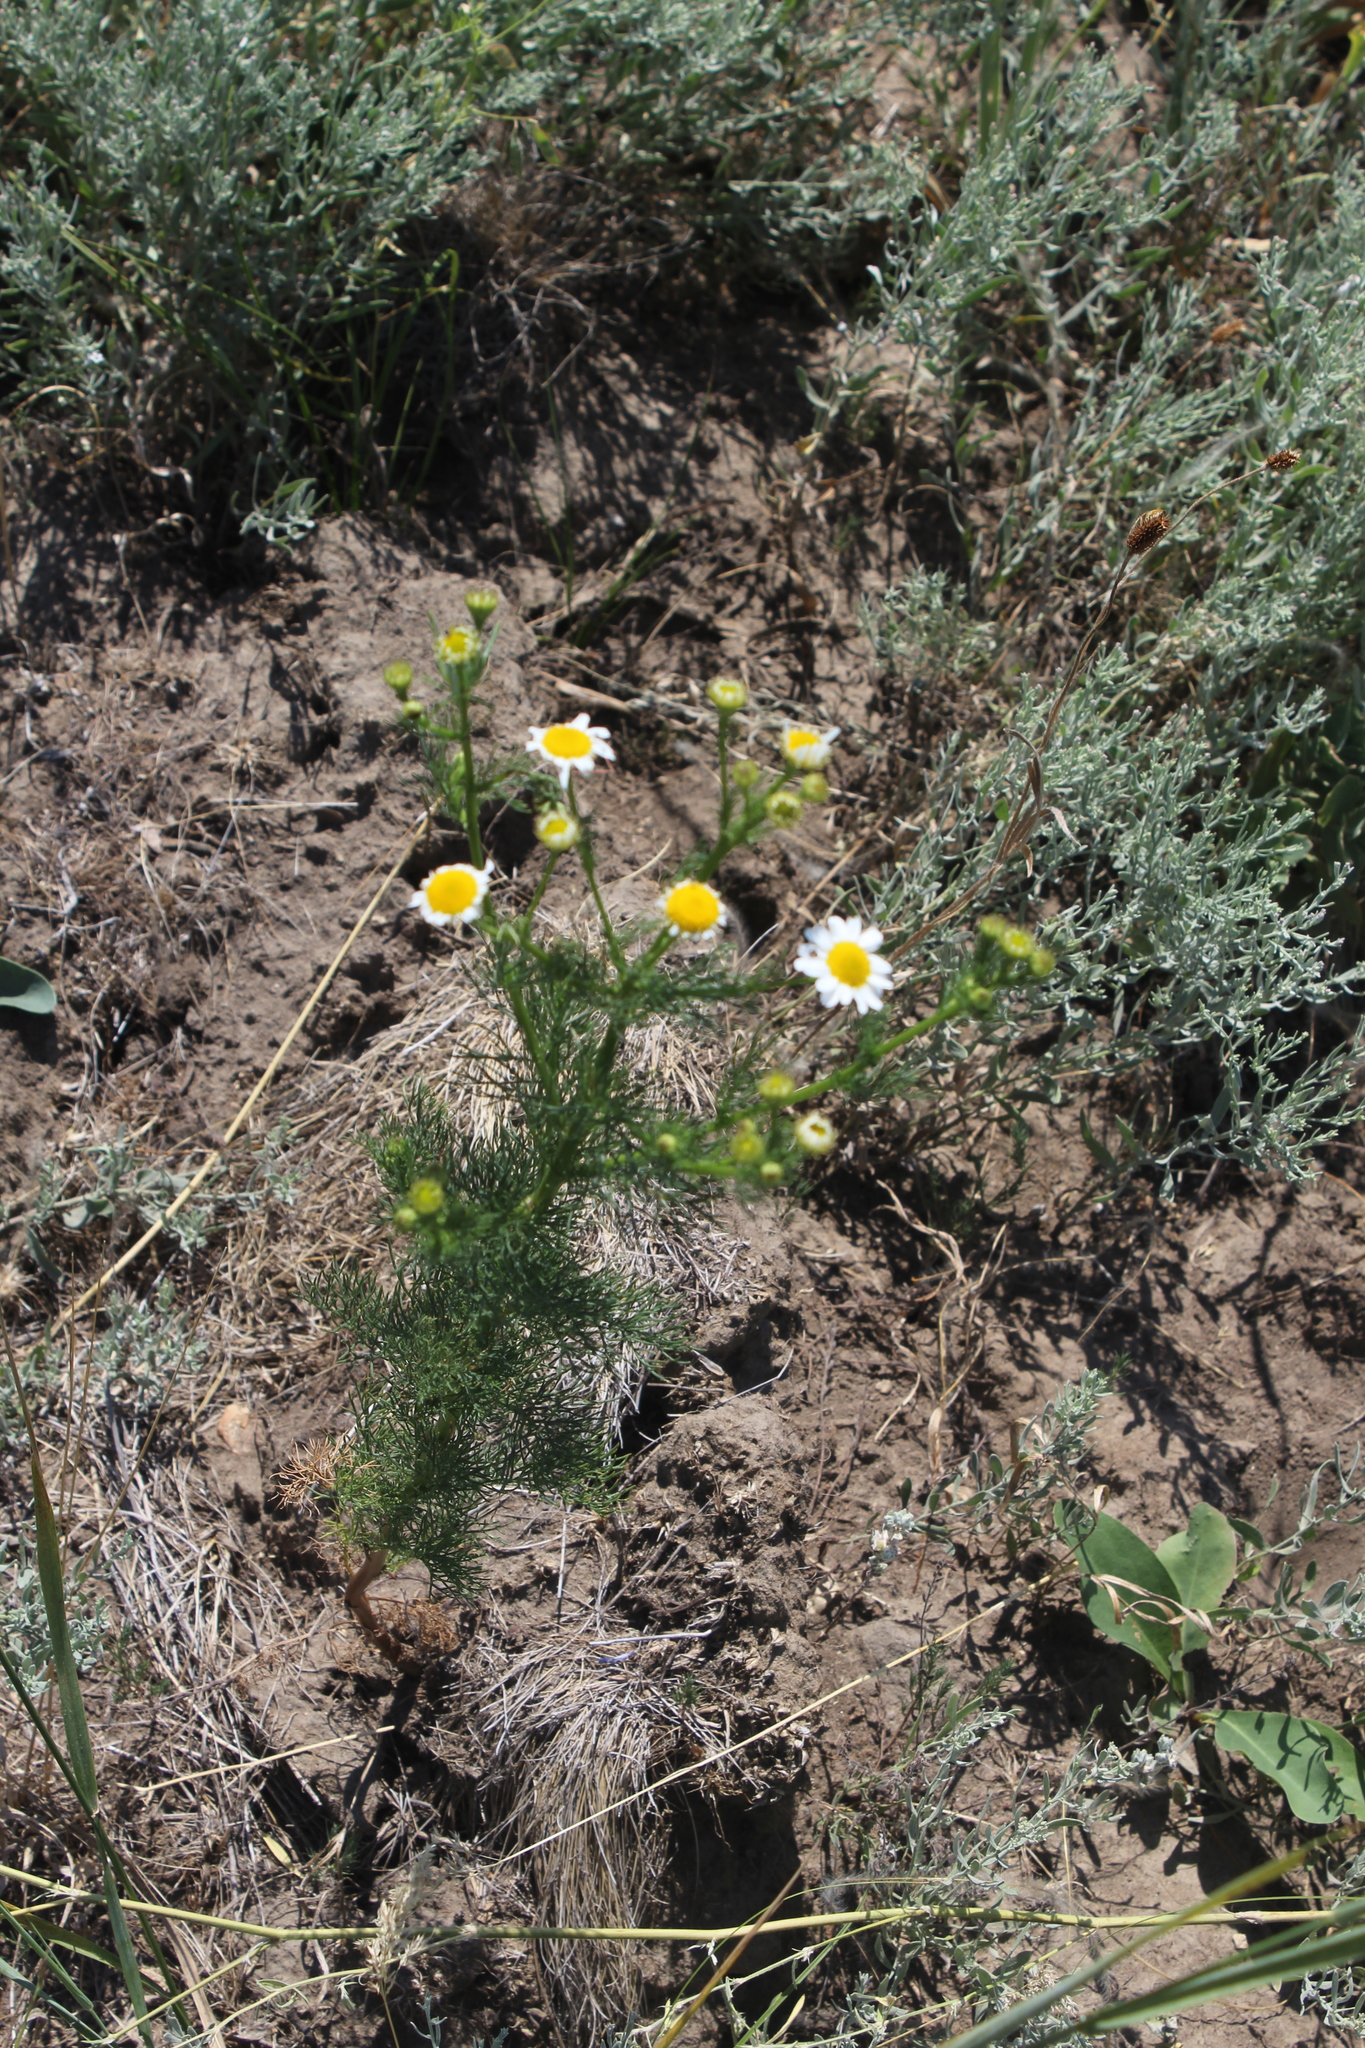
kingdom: Plantae
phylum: Tracheophyta
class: Magnoliopsida
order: Asterales
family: Asteraceae
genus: Tripleurospermum
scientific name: Tripleurospermum inodorum
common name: Scentless mayweed
